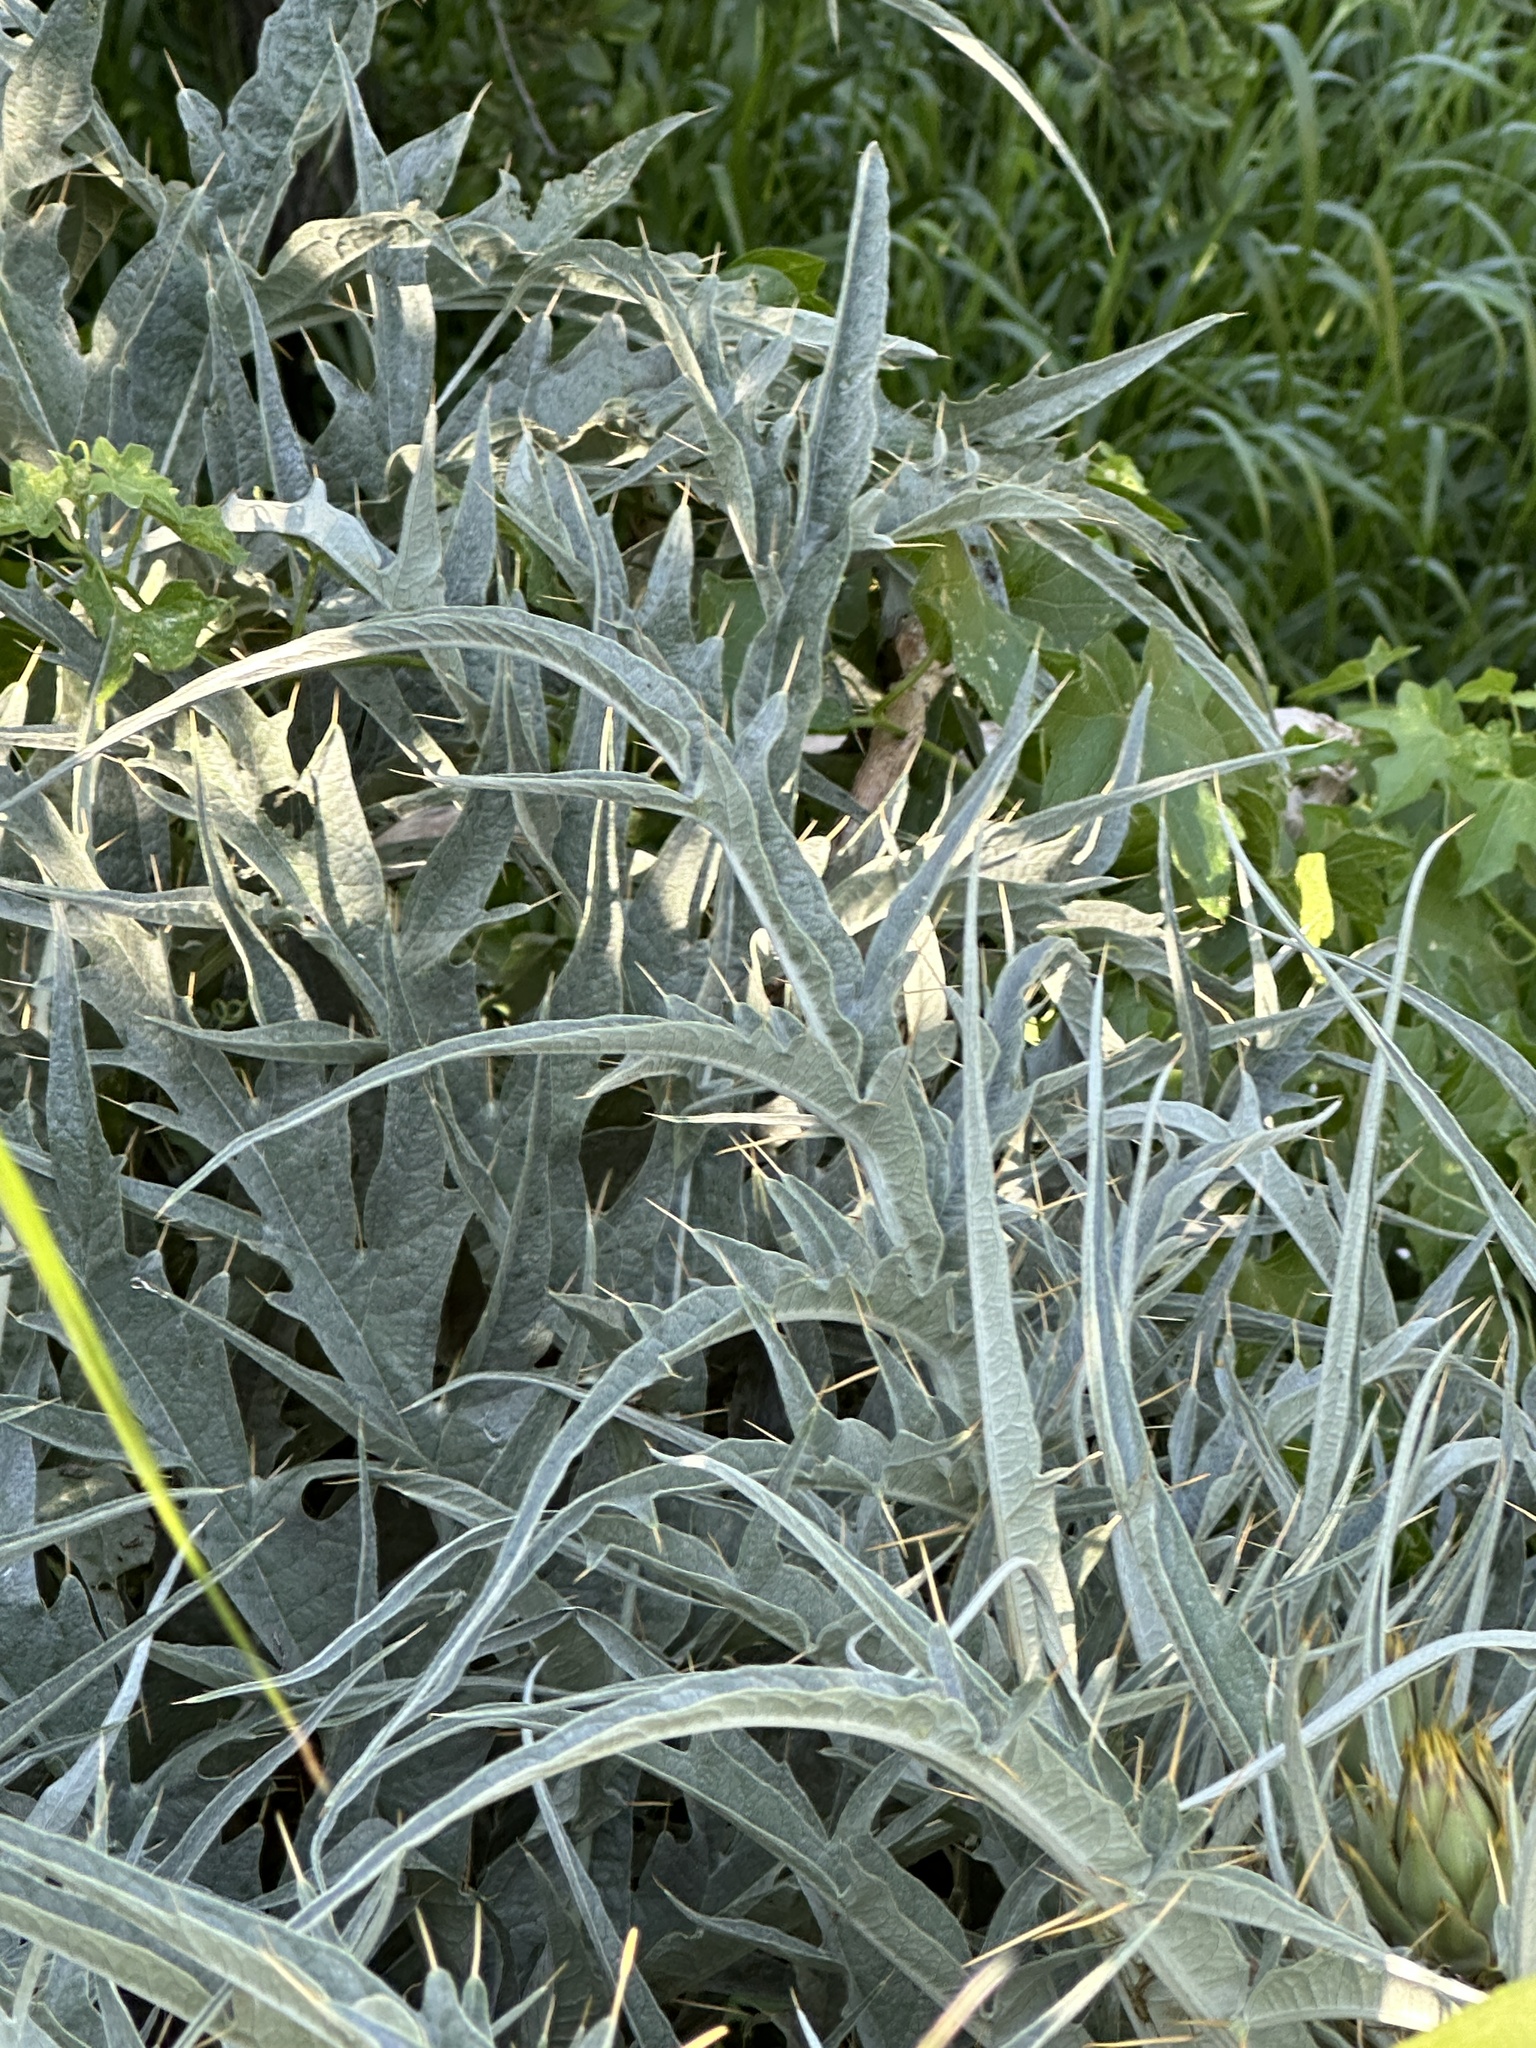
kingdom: Plantae
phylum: Tracheophyta
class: Magnoliopsida
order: Asterales
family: Asteraceae
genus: Cynara
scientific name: Cynara cardunculus
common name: Globe artichoke
